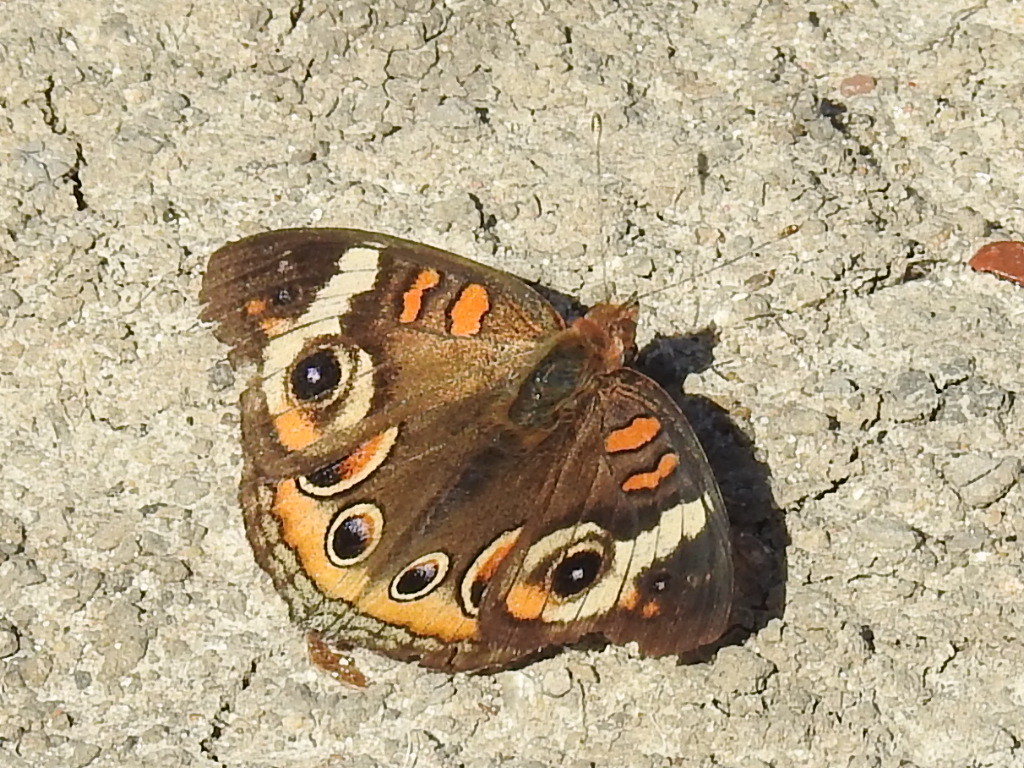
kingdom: Animalia
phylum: Arthropoda
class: Insecta
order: Lepidoptera
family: Nymphalidae
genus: Junonia
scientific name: Junonia coenia
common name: Common buckeye
